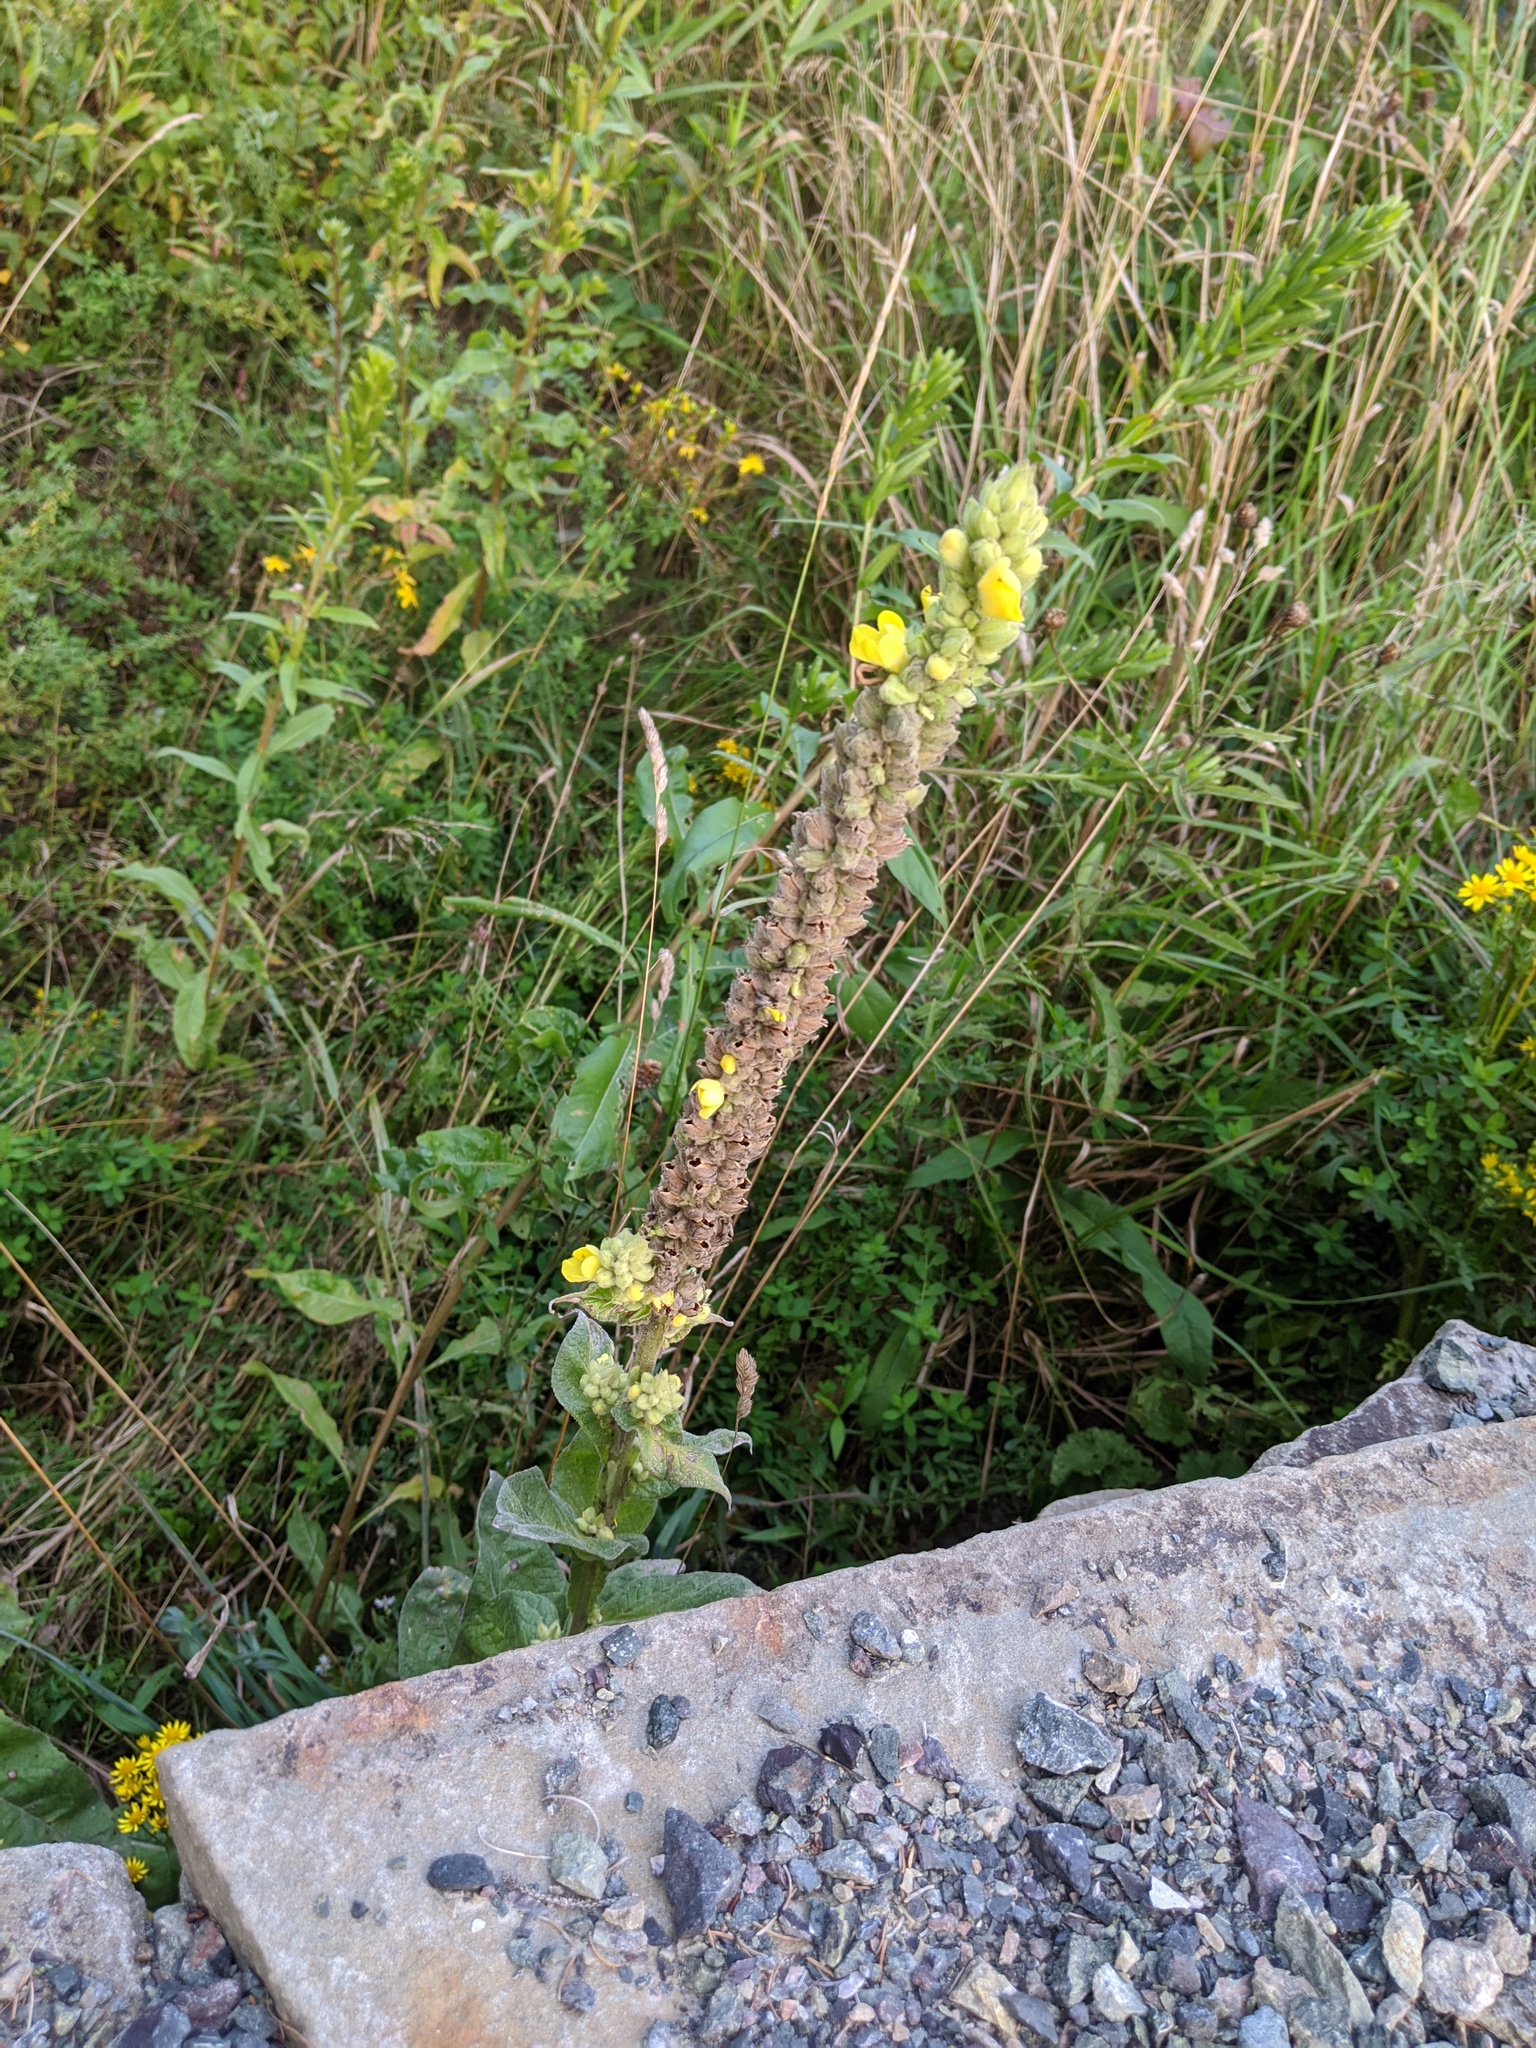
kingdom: Plantae
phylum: Tracheophyta
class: Magnoliopsida
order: Lamiales
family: Scrophulariaceae
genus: Verbascum
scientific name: Verbascum thapsus
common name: Common mullein
